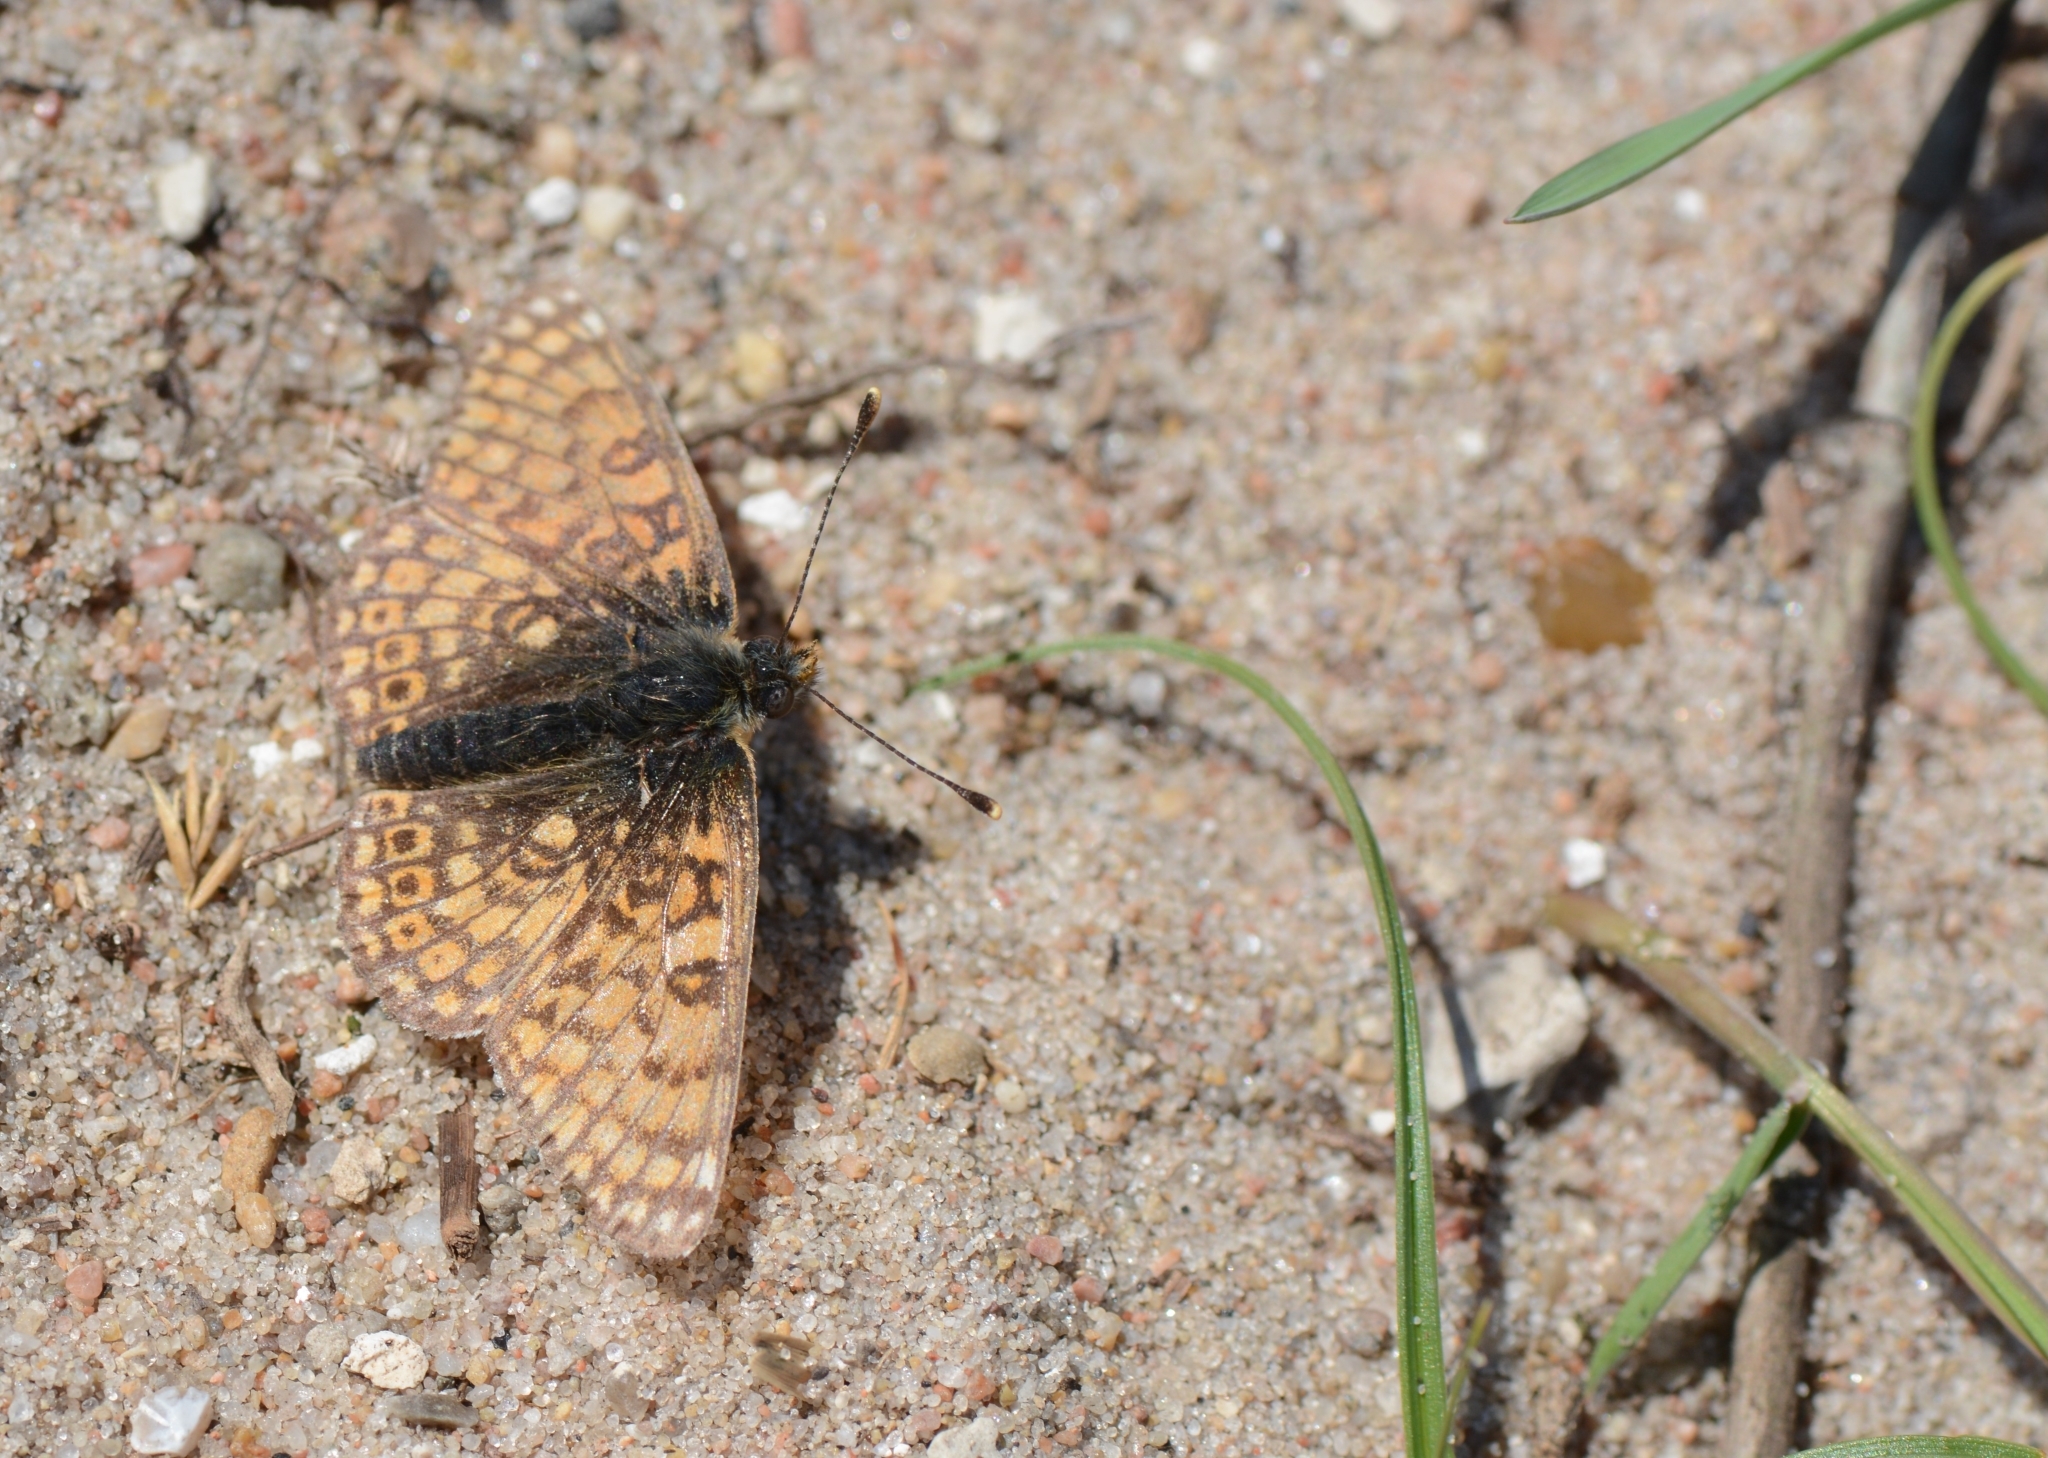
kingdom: Animalia
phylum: Arthropoda
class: Insecta
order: Lepidoptera
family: Nymphalidae
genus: Melitaea
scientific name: Melitaea cinxia
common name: Glanville fritillary
